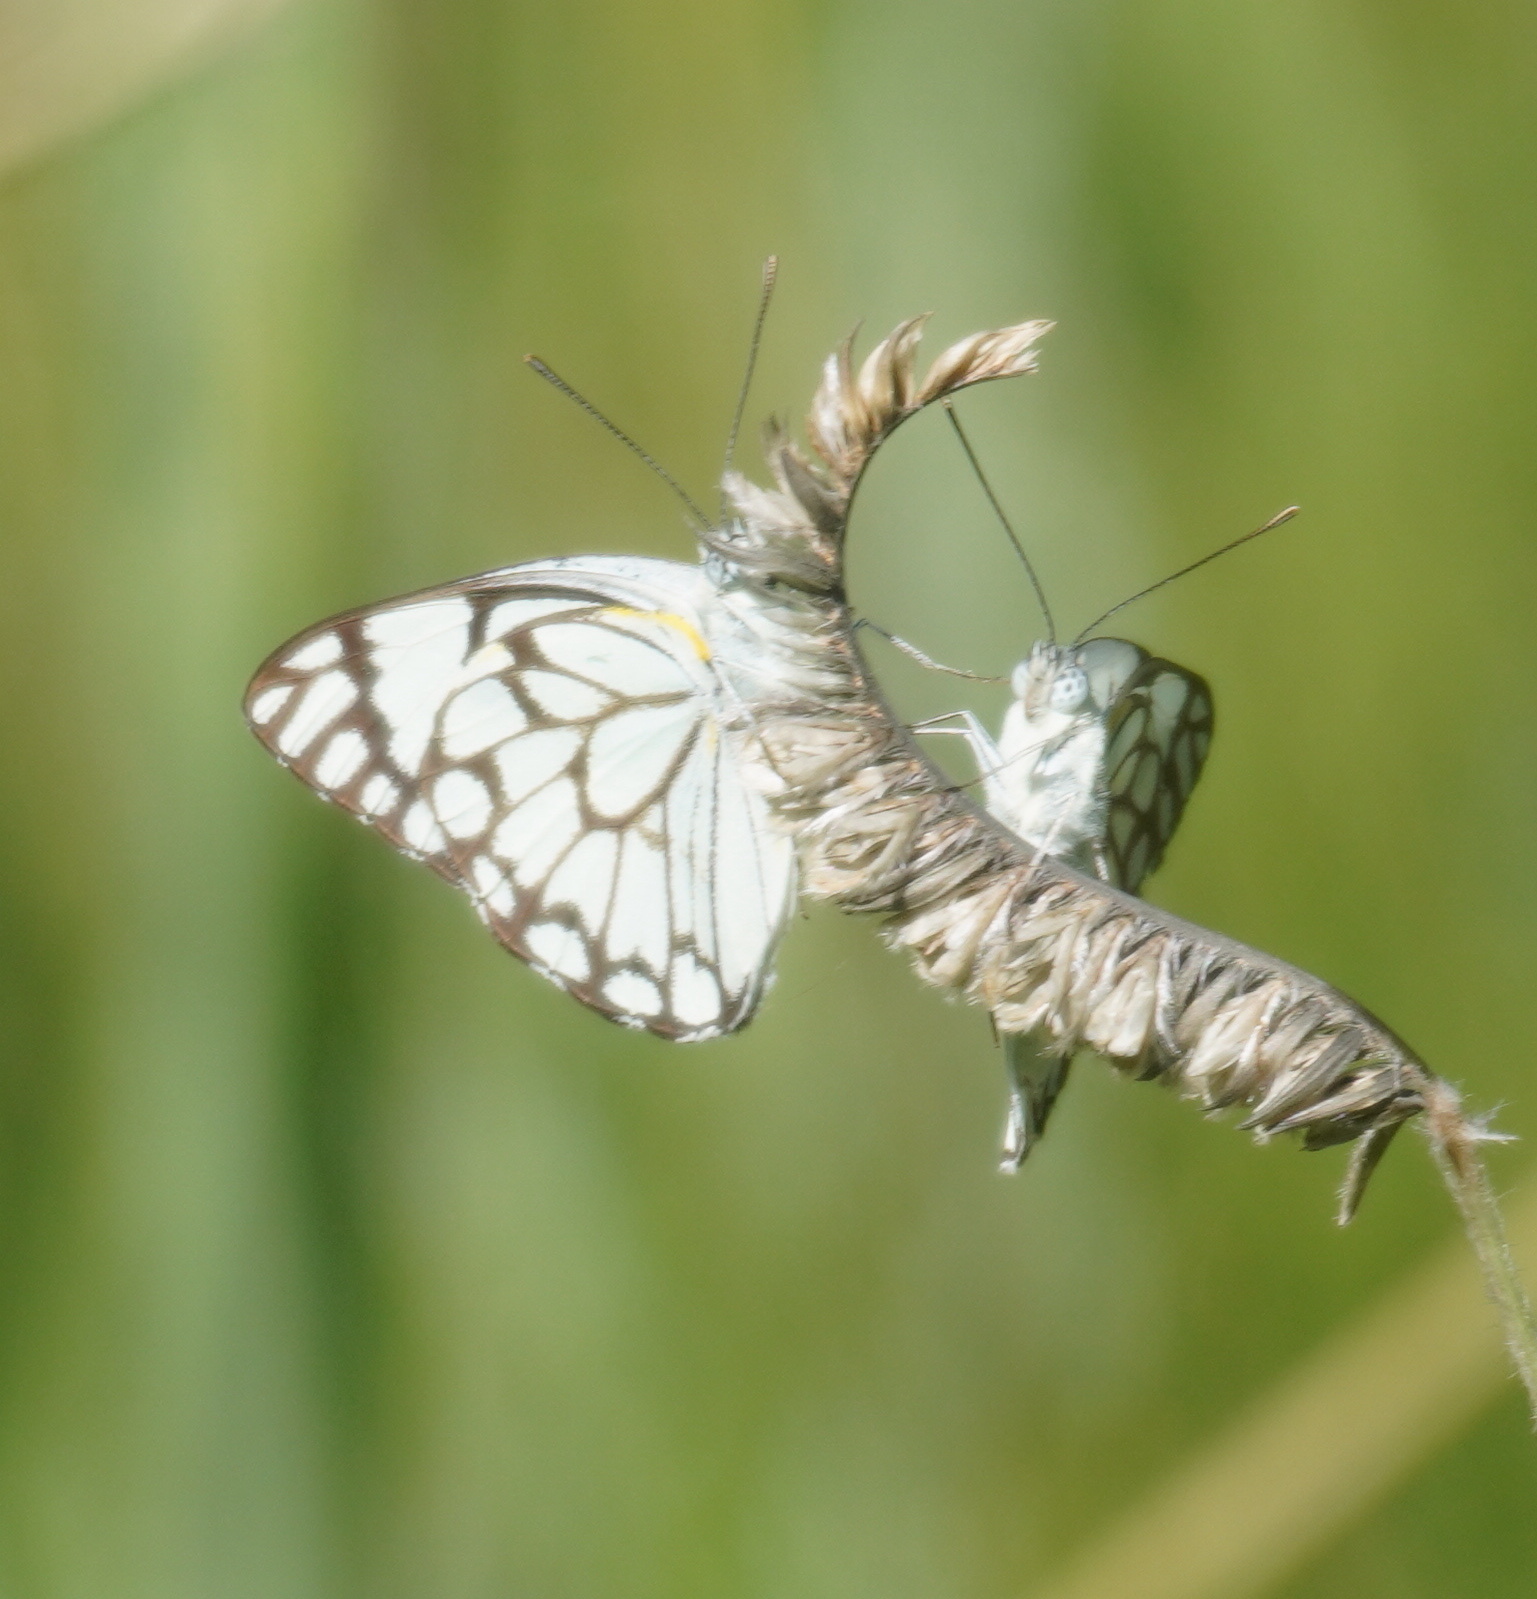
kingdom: Animalia
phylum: Arthropoda
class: Insecta
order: Lepidoptera
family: Pieridae
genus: Belenois
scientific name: Belenois aurota
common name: Brown-veined white
